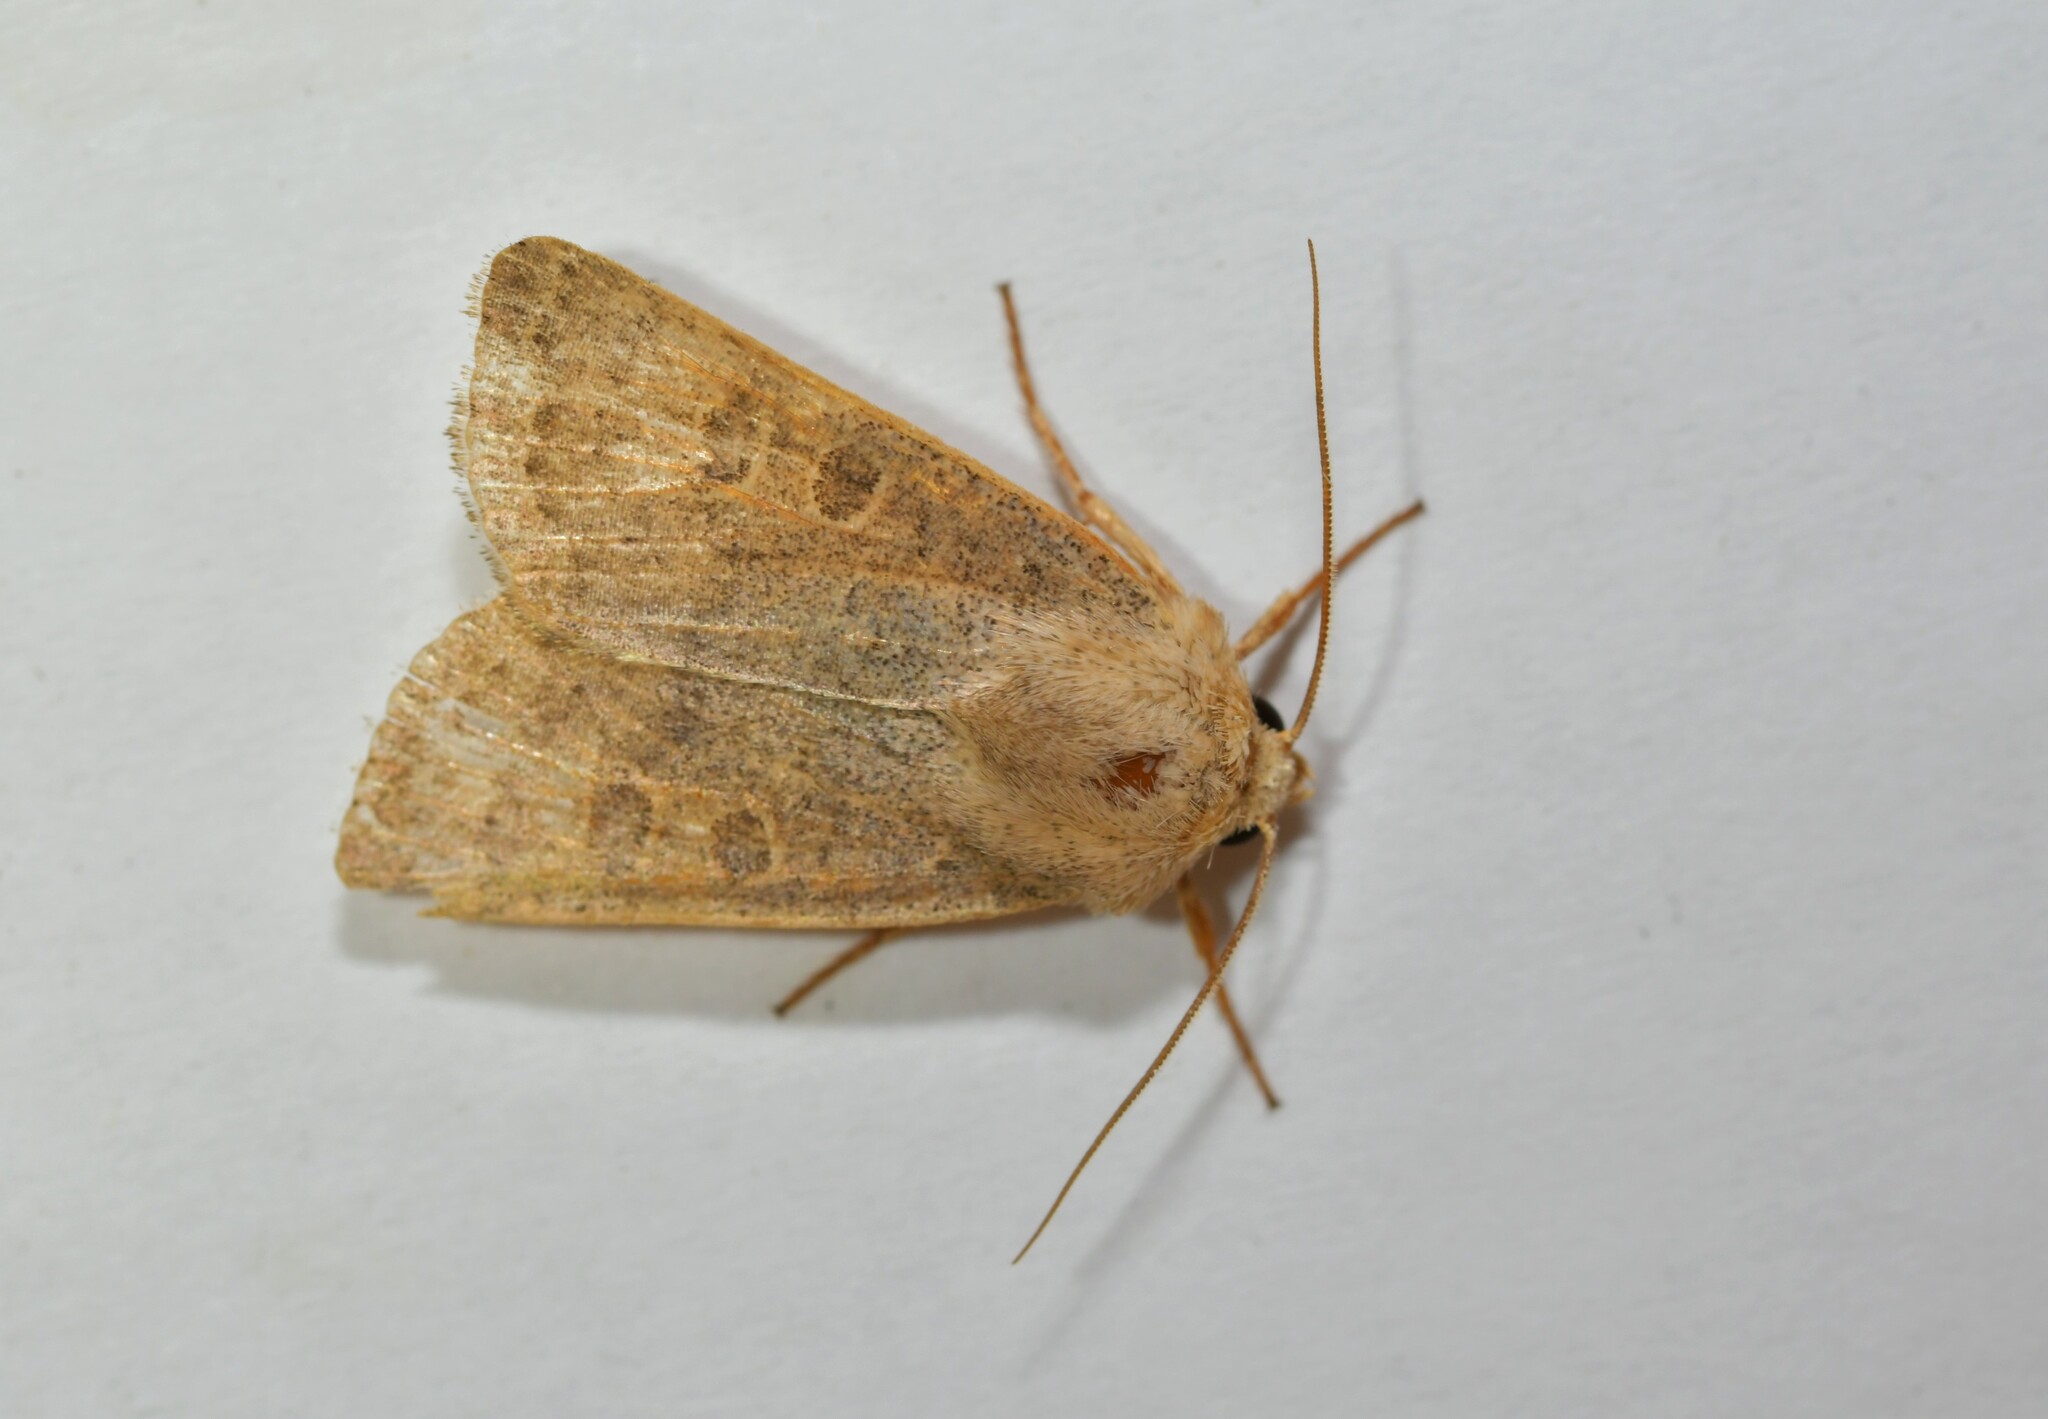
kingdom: Animalia
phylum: Arthropoda
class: Insecta
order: Lepidoptera
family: Noctuidae
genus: Hoplodrina
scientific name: Hoplodrina ambigua
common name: Vine's rustic
